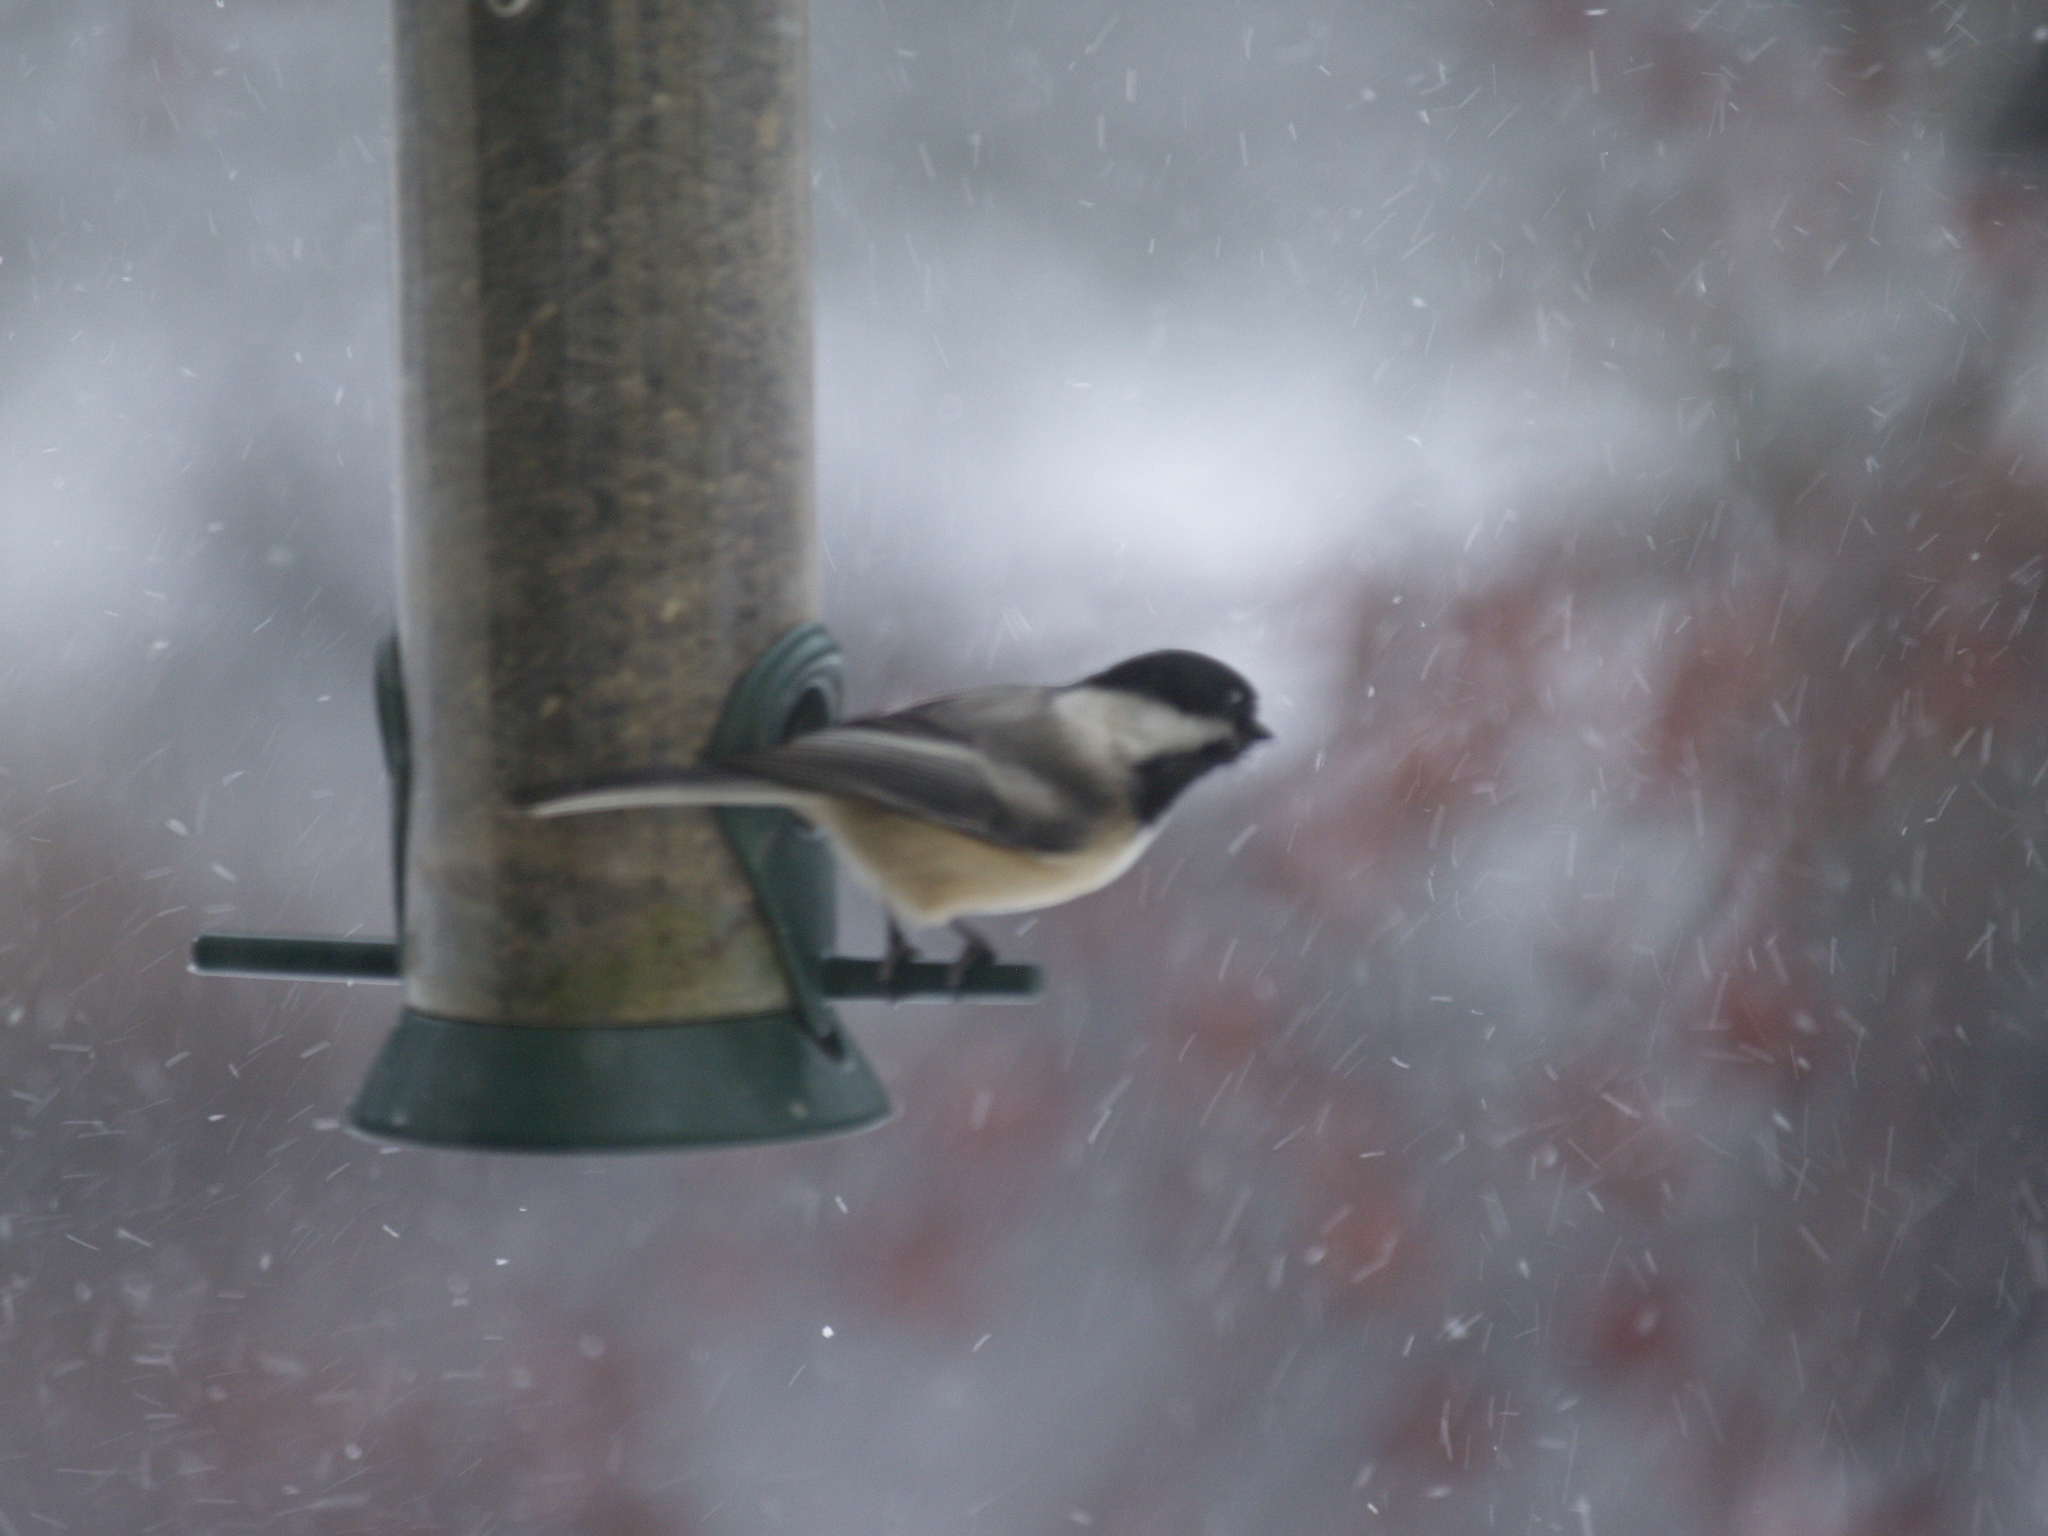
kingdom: Animalia
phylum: Chordata
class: Aves
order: Passeriformes
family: Paridae
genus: Poecile
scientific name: Poecile atricapillus
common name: Black-capped chickadee
